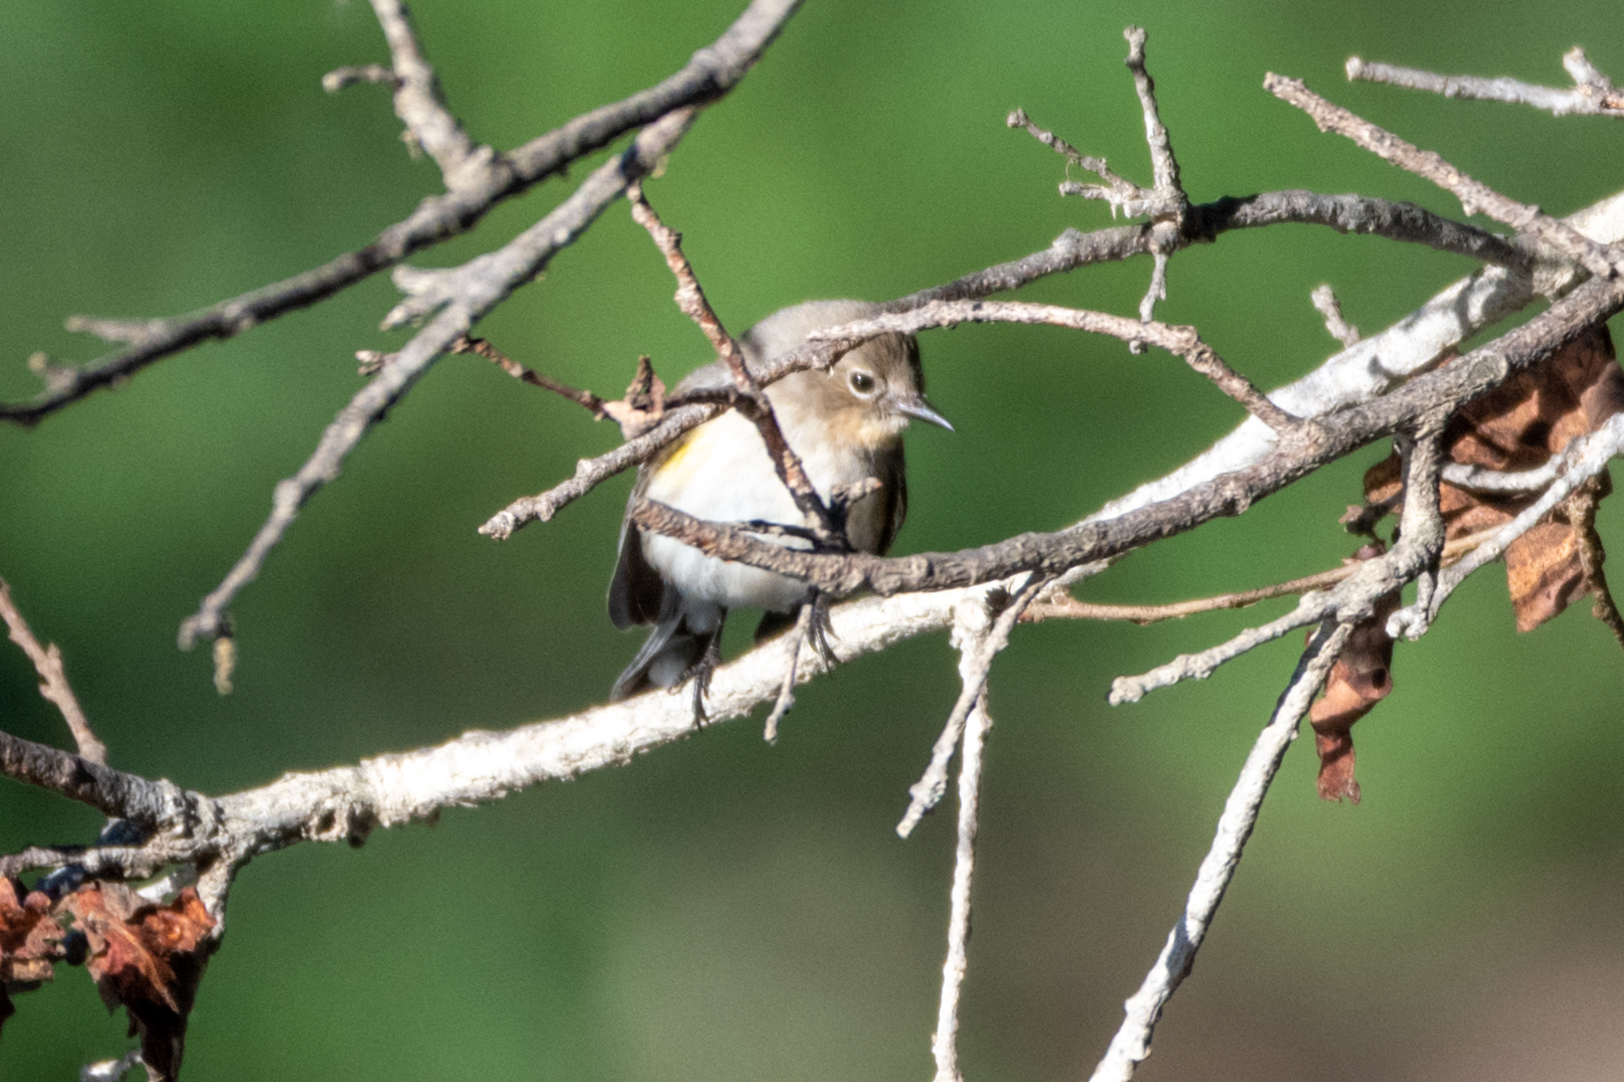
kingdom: Animalia
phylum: Chordata
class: Aves
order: Passeriformes
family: Parulidae
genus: Setophaga
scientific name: Setophaga coronata
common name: Myrtle warbler
